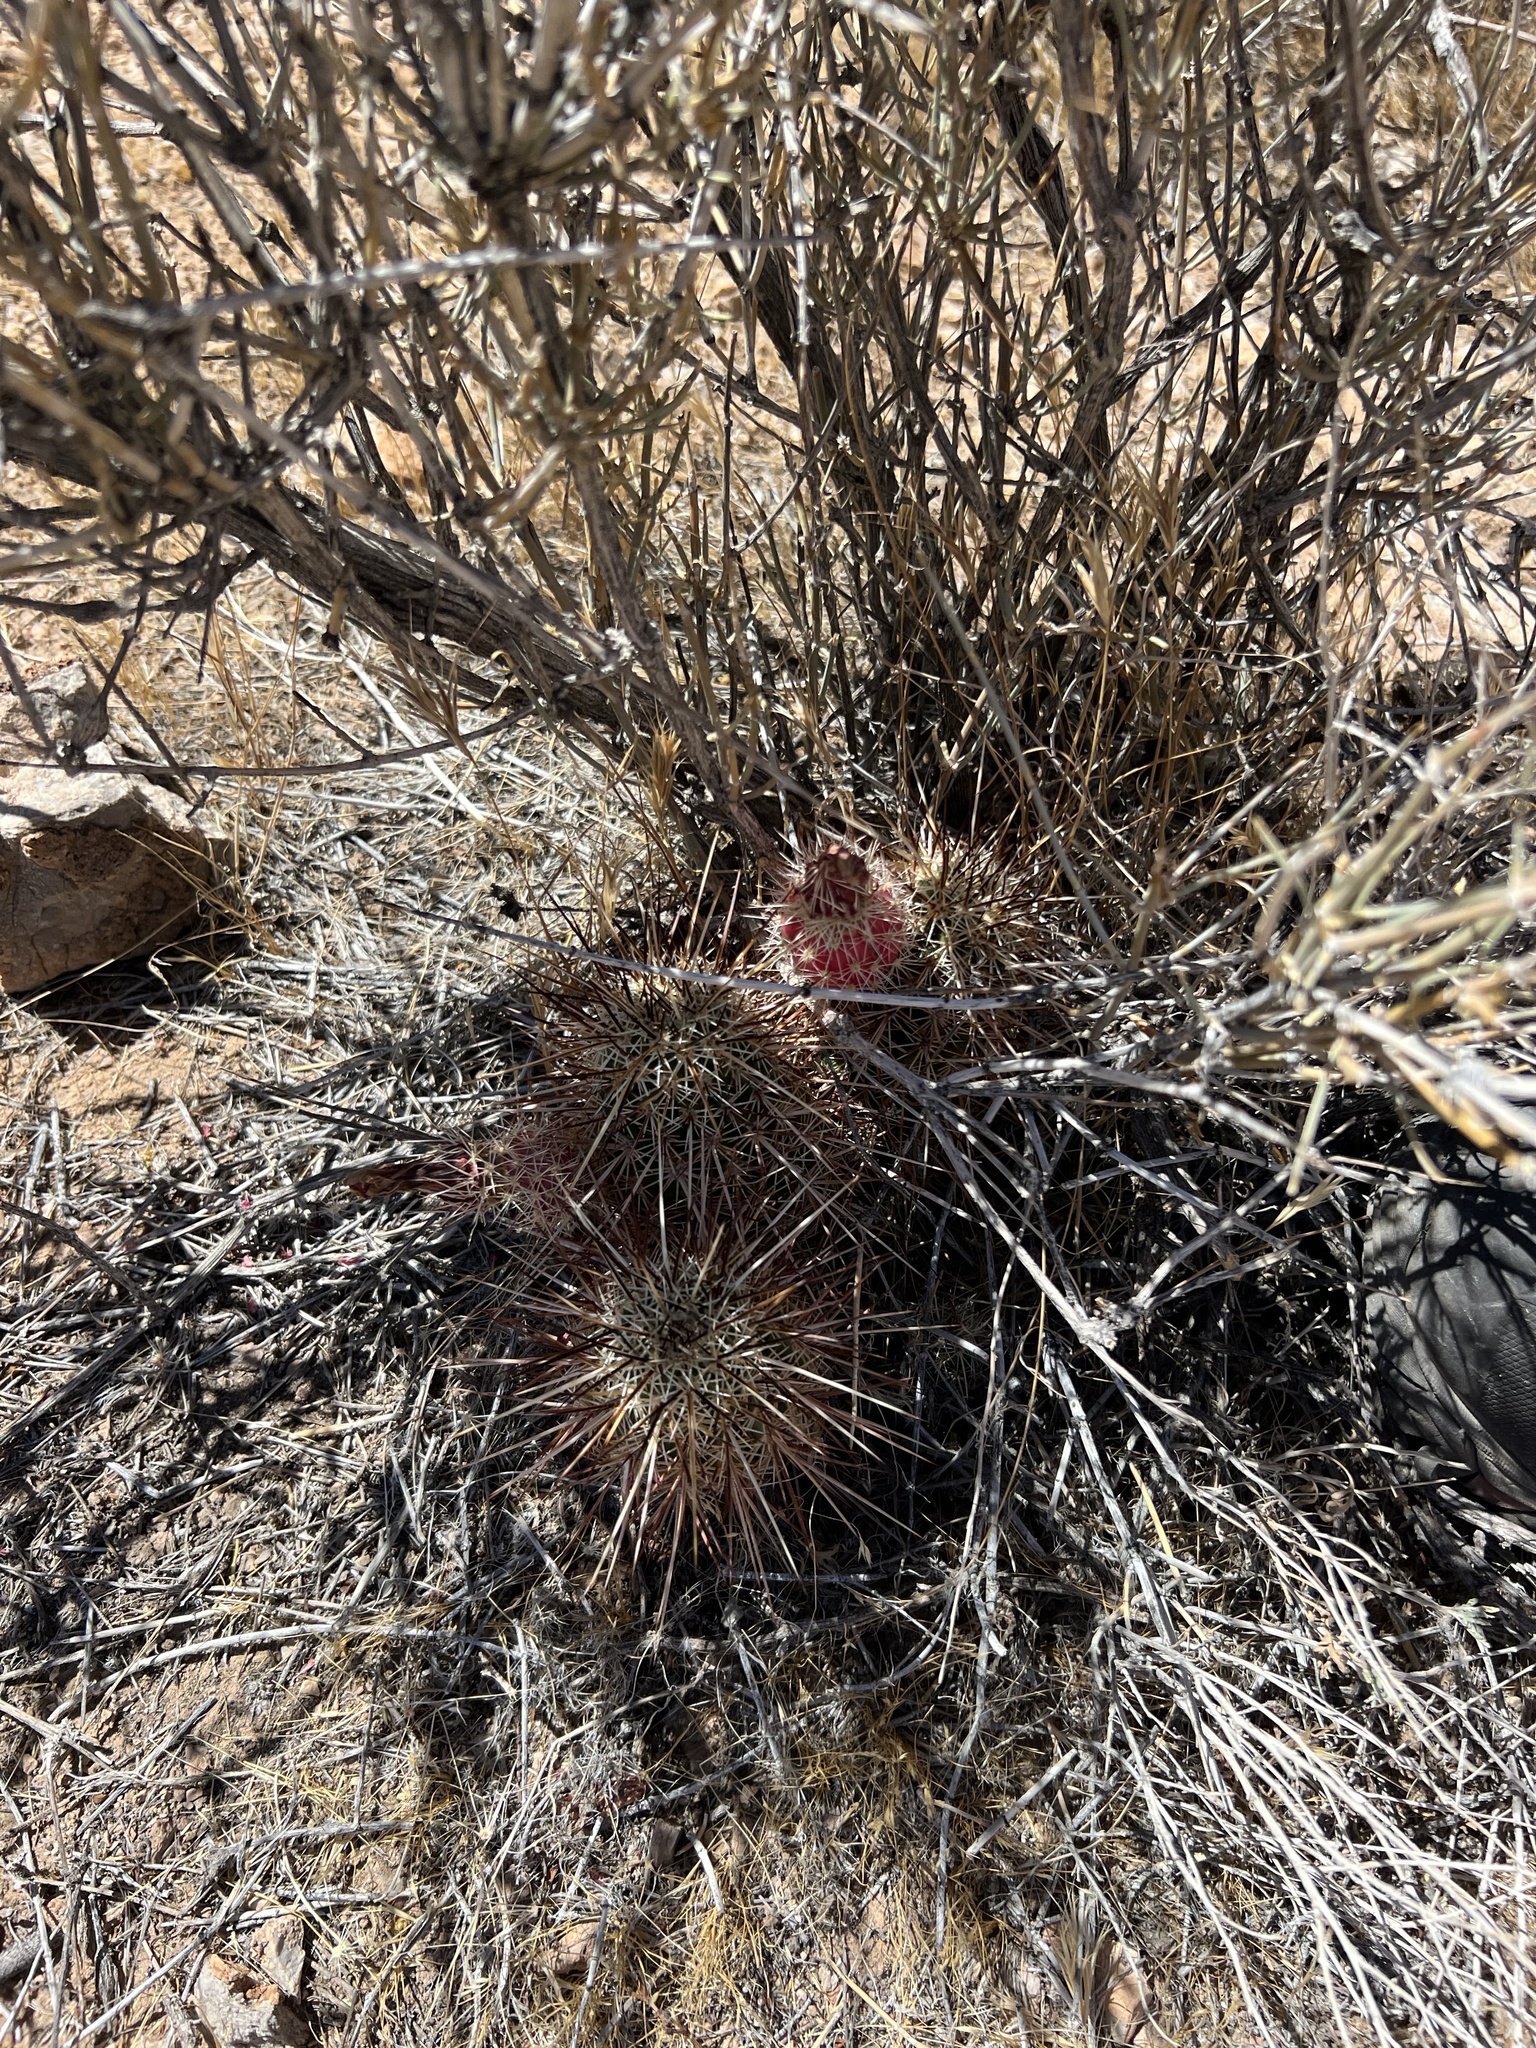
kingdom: Plantae
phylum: Tracheophyta
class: Magnoliopsida
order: Caryophyllales
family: Cactaceae
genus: Echinocereus
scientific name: Echinocereus engelmannii
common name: Engelmann's hedgehog cactus
